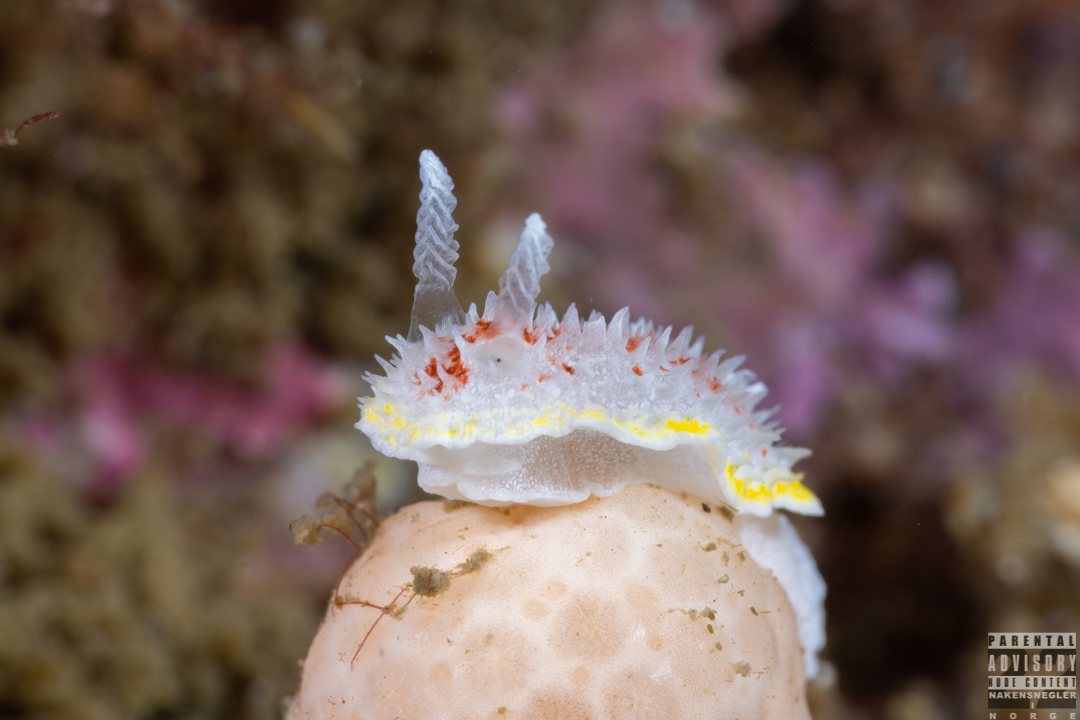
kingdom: Animalia
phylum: Mollusca
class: Gastropoda
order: Nudibranchia
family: Calycidorididae
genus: Diaphorodoris
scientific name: Diaphorodoris luteocincta
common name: Fried egg nudibranch
